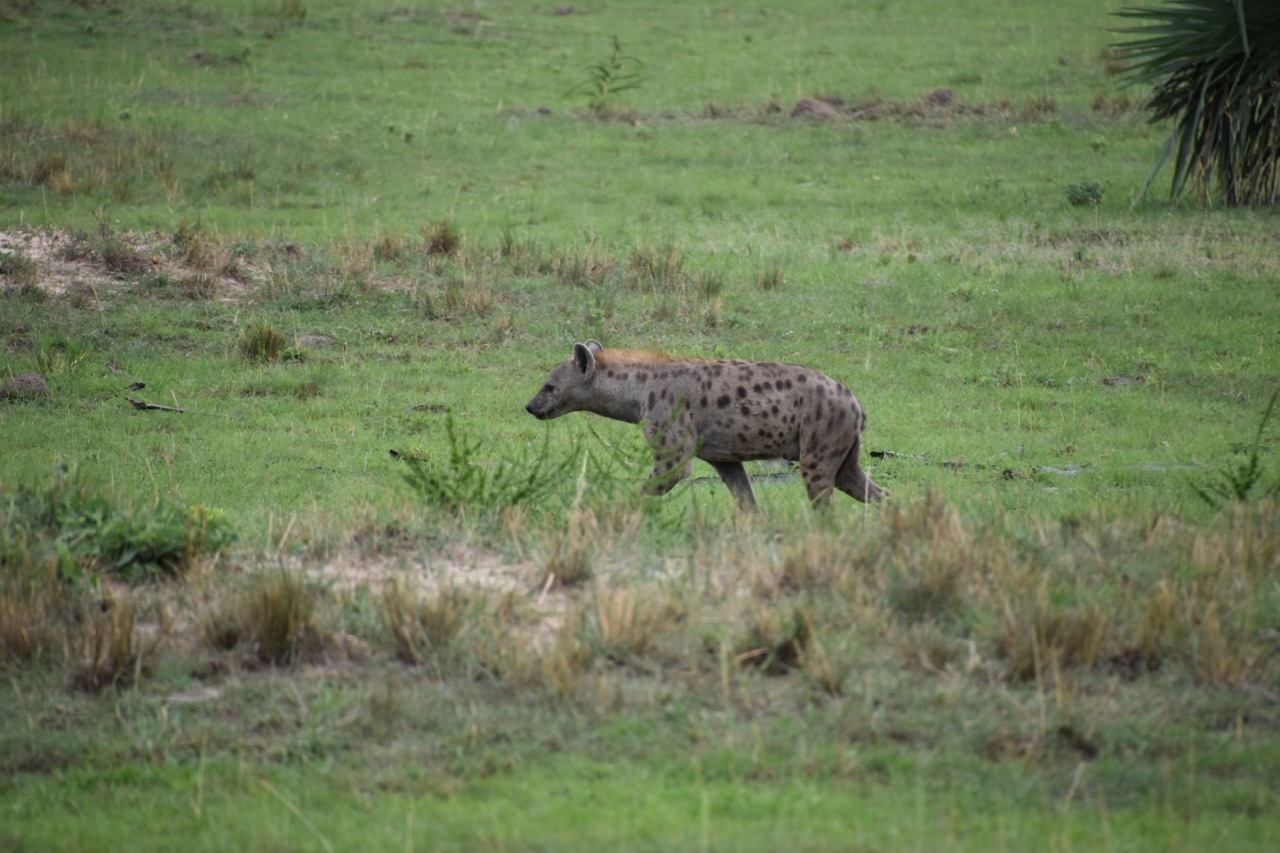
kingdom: Animalia
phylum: Chordata
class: Mammalia
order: Carnivora
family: Hyaenidae
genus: Crocuta
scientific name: Crocuta crocuta
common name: Spotted hyaena
